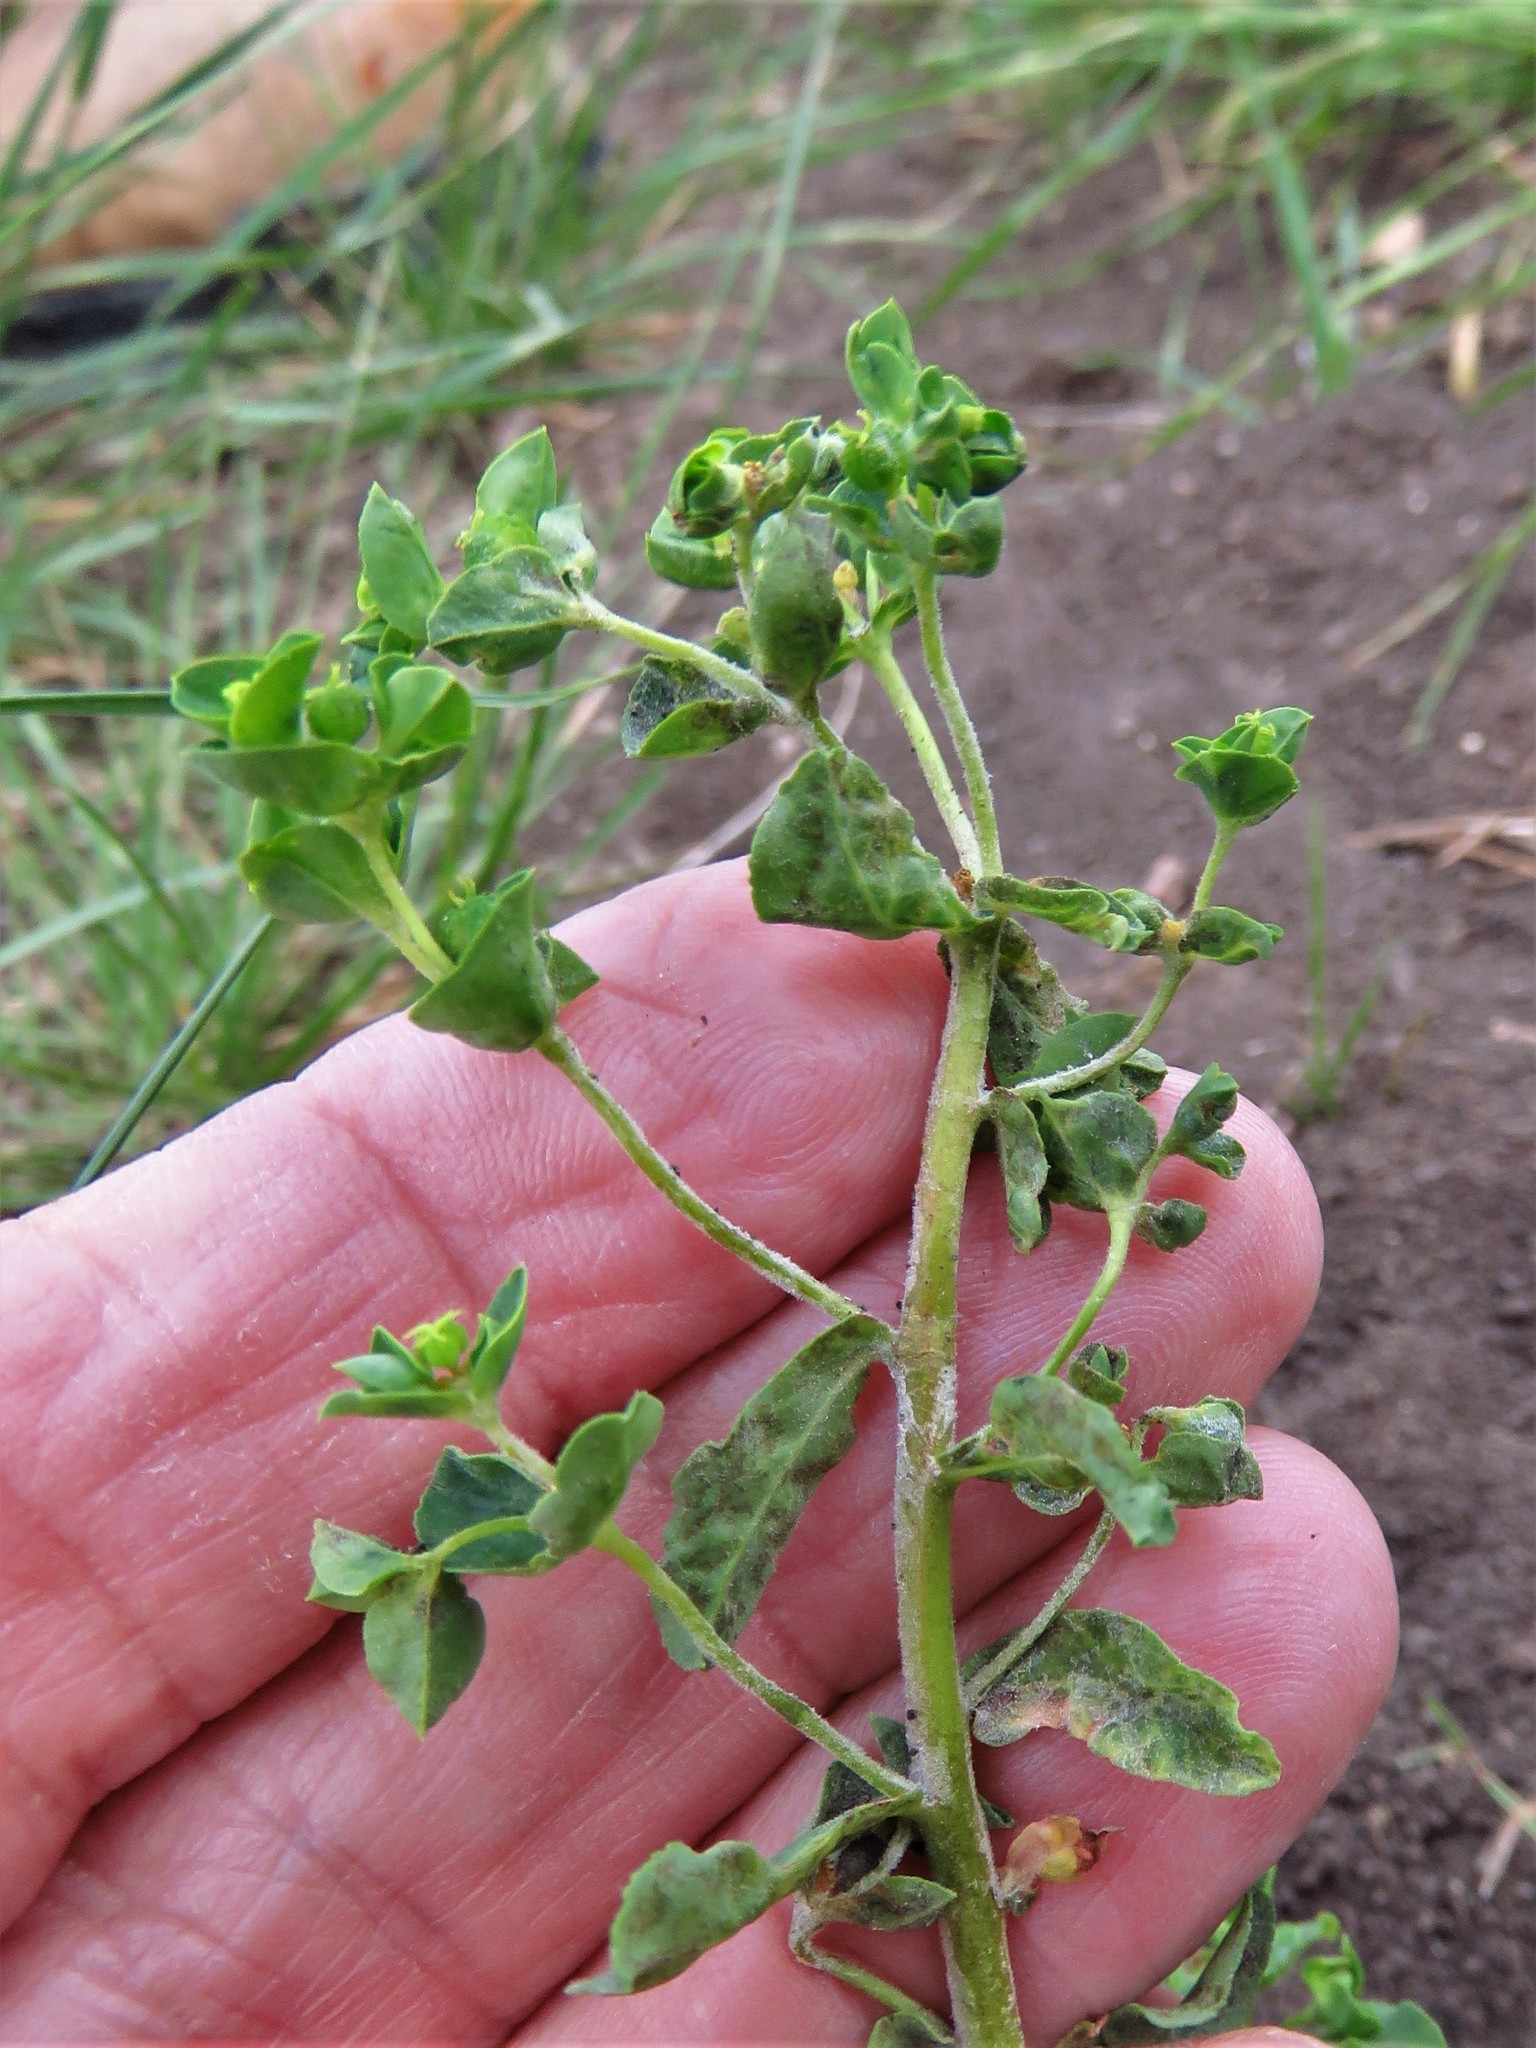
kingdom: Plantae
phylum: Tracheophyta
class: Magnoliopsida
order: Malpighiales
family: Euphorbiaceae
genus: Euphorbia
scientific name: Euphorbia spathulata
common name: Blunt spurge
